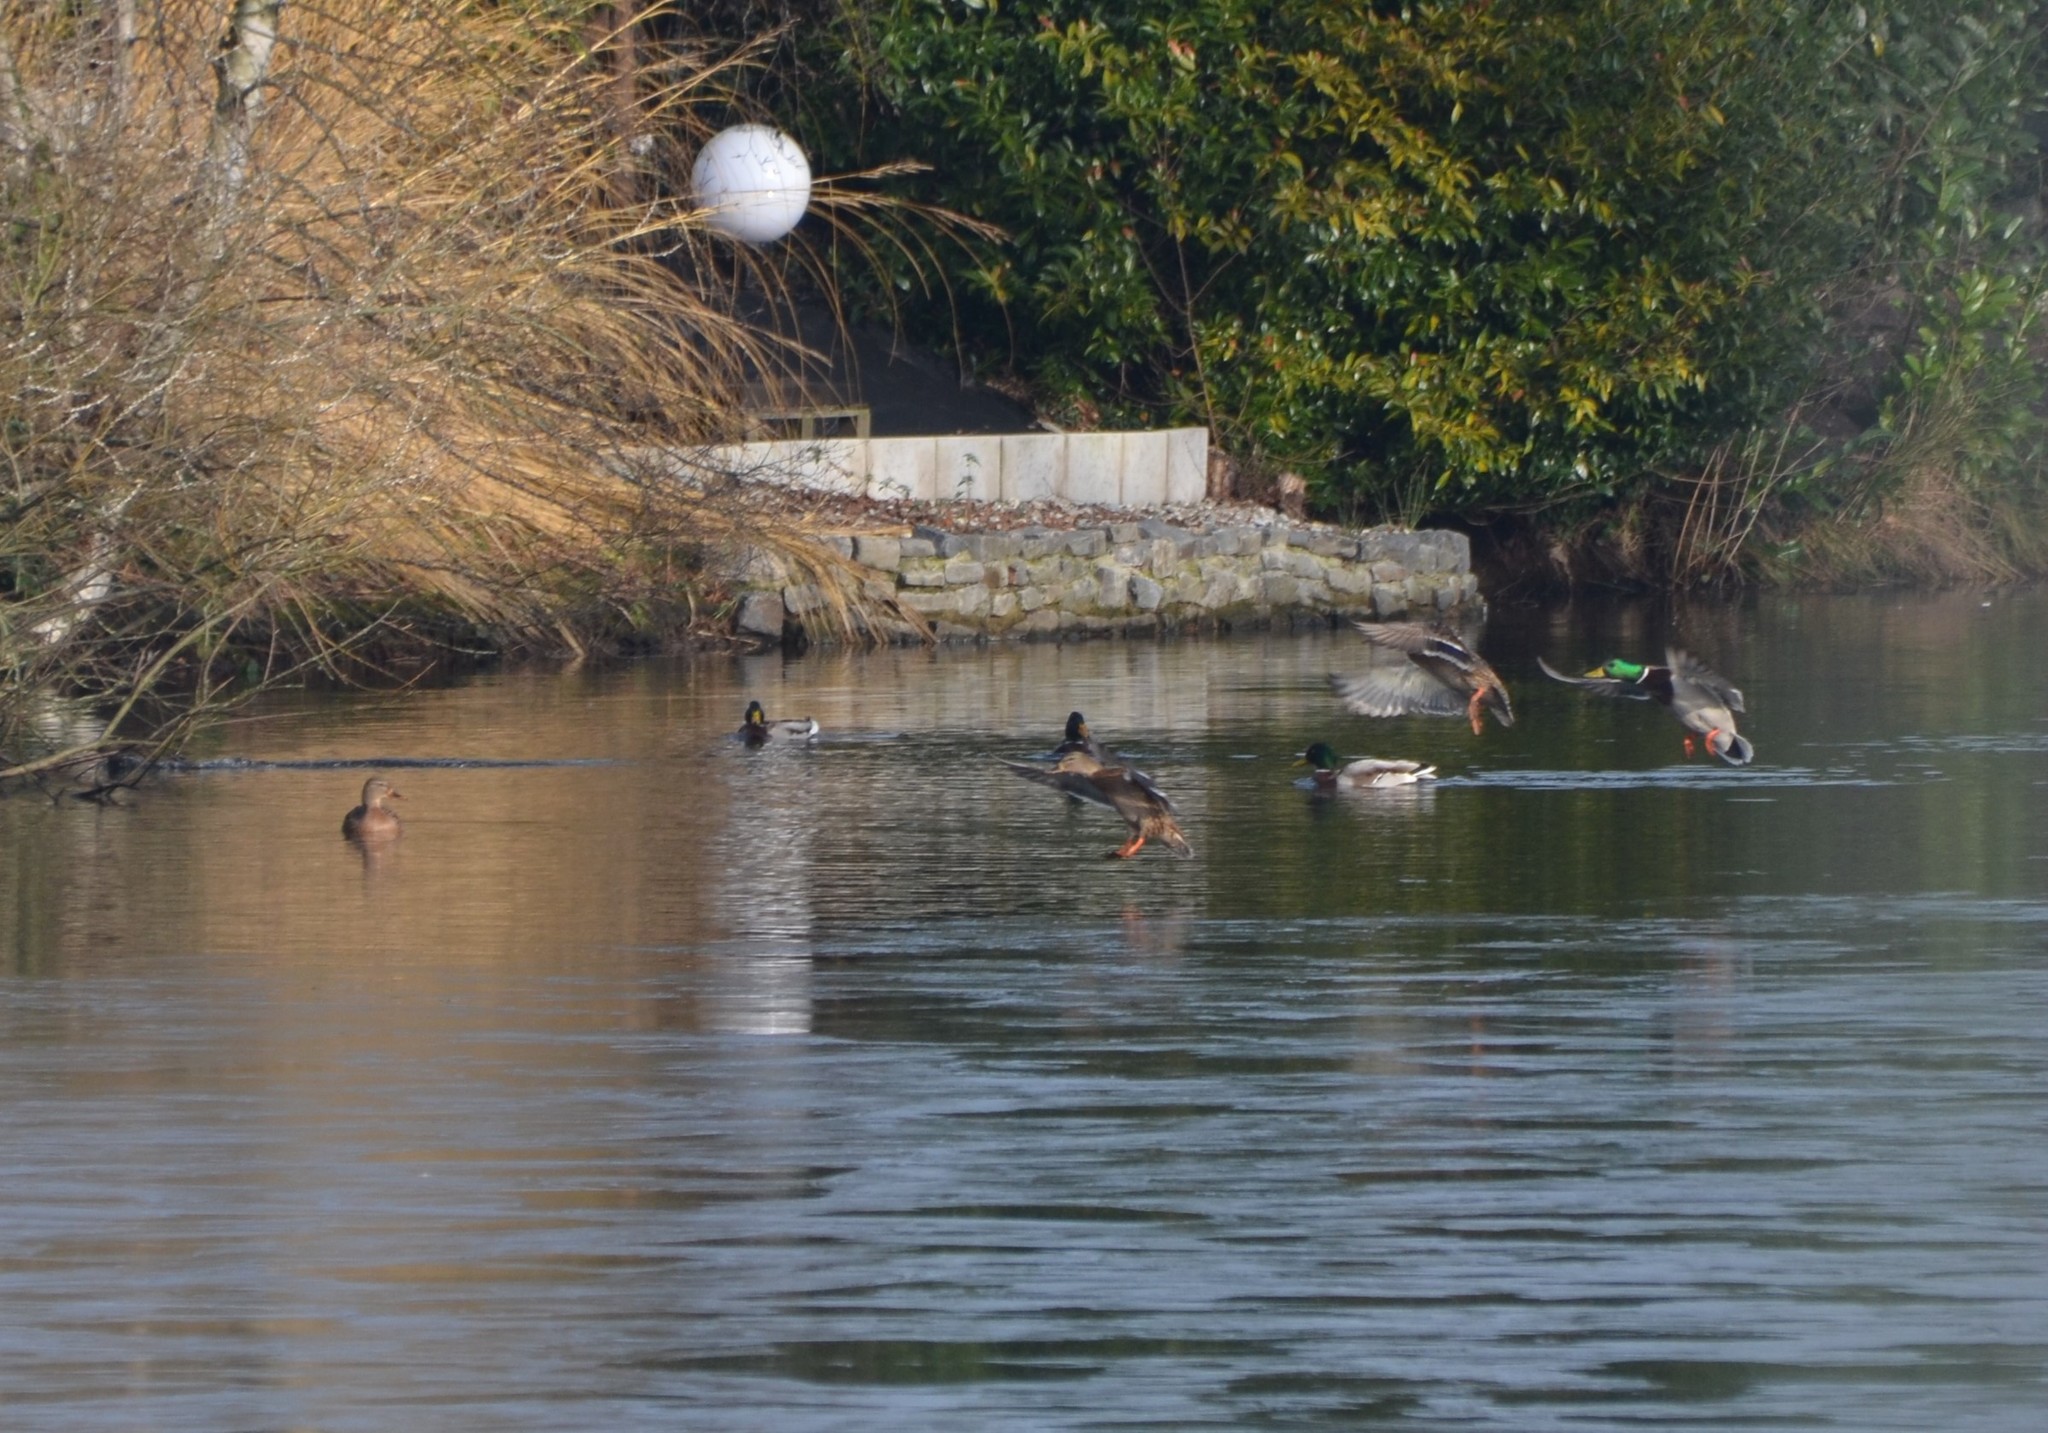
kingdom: Animalia
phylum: Chordata
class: Aves
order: Anseriformes
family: Anatidae
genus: Anas
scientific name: Anas platyrhynchos
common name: Mallard
